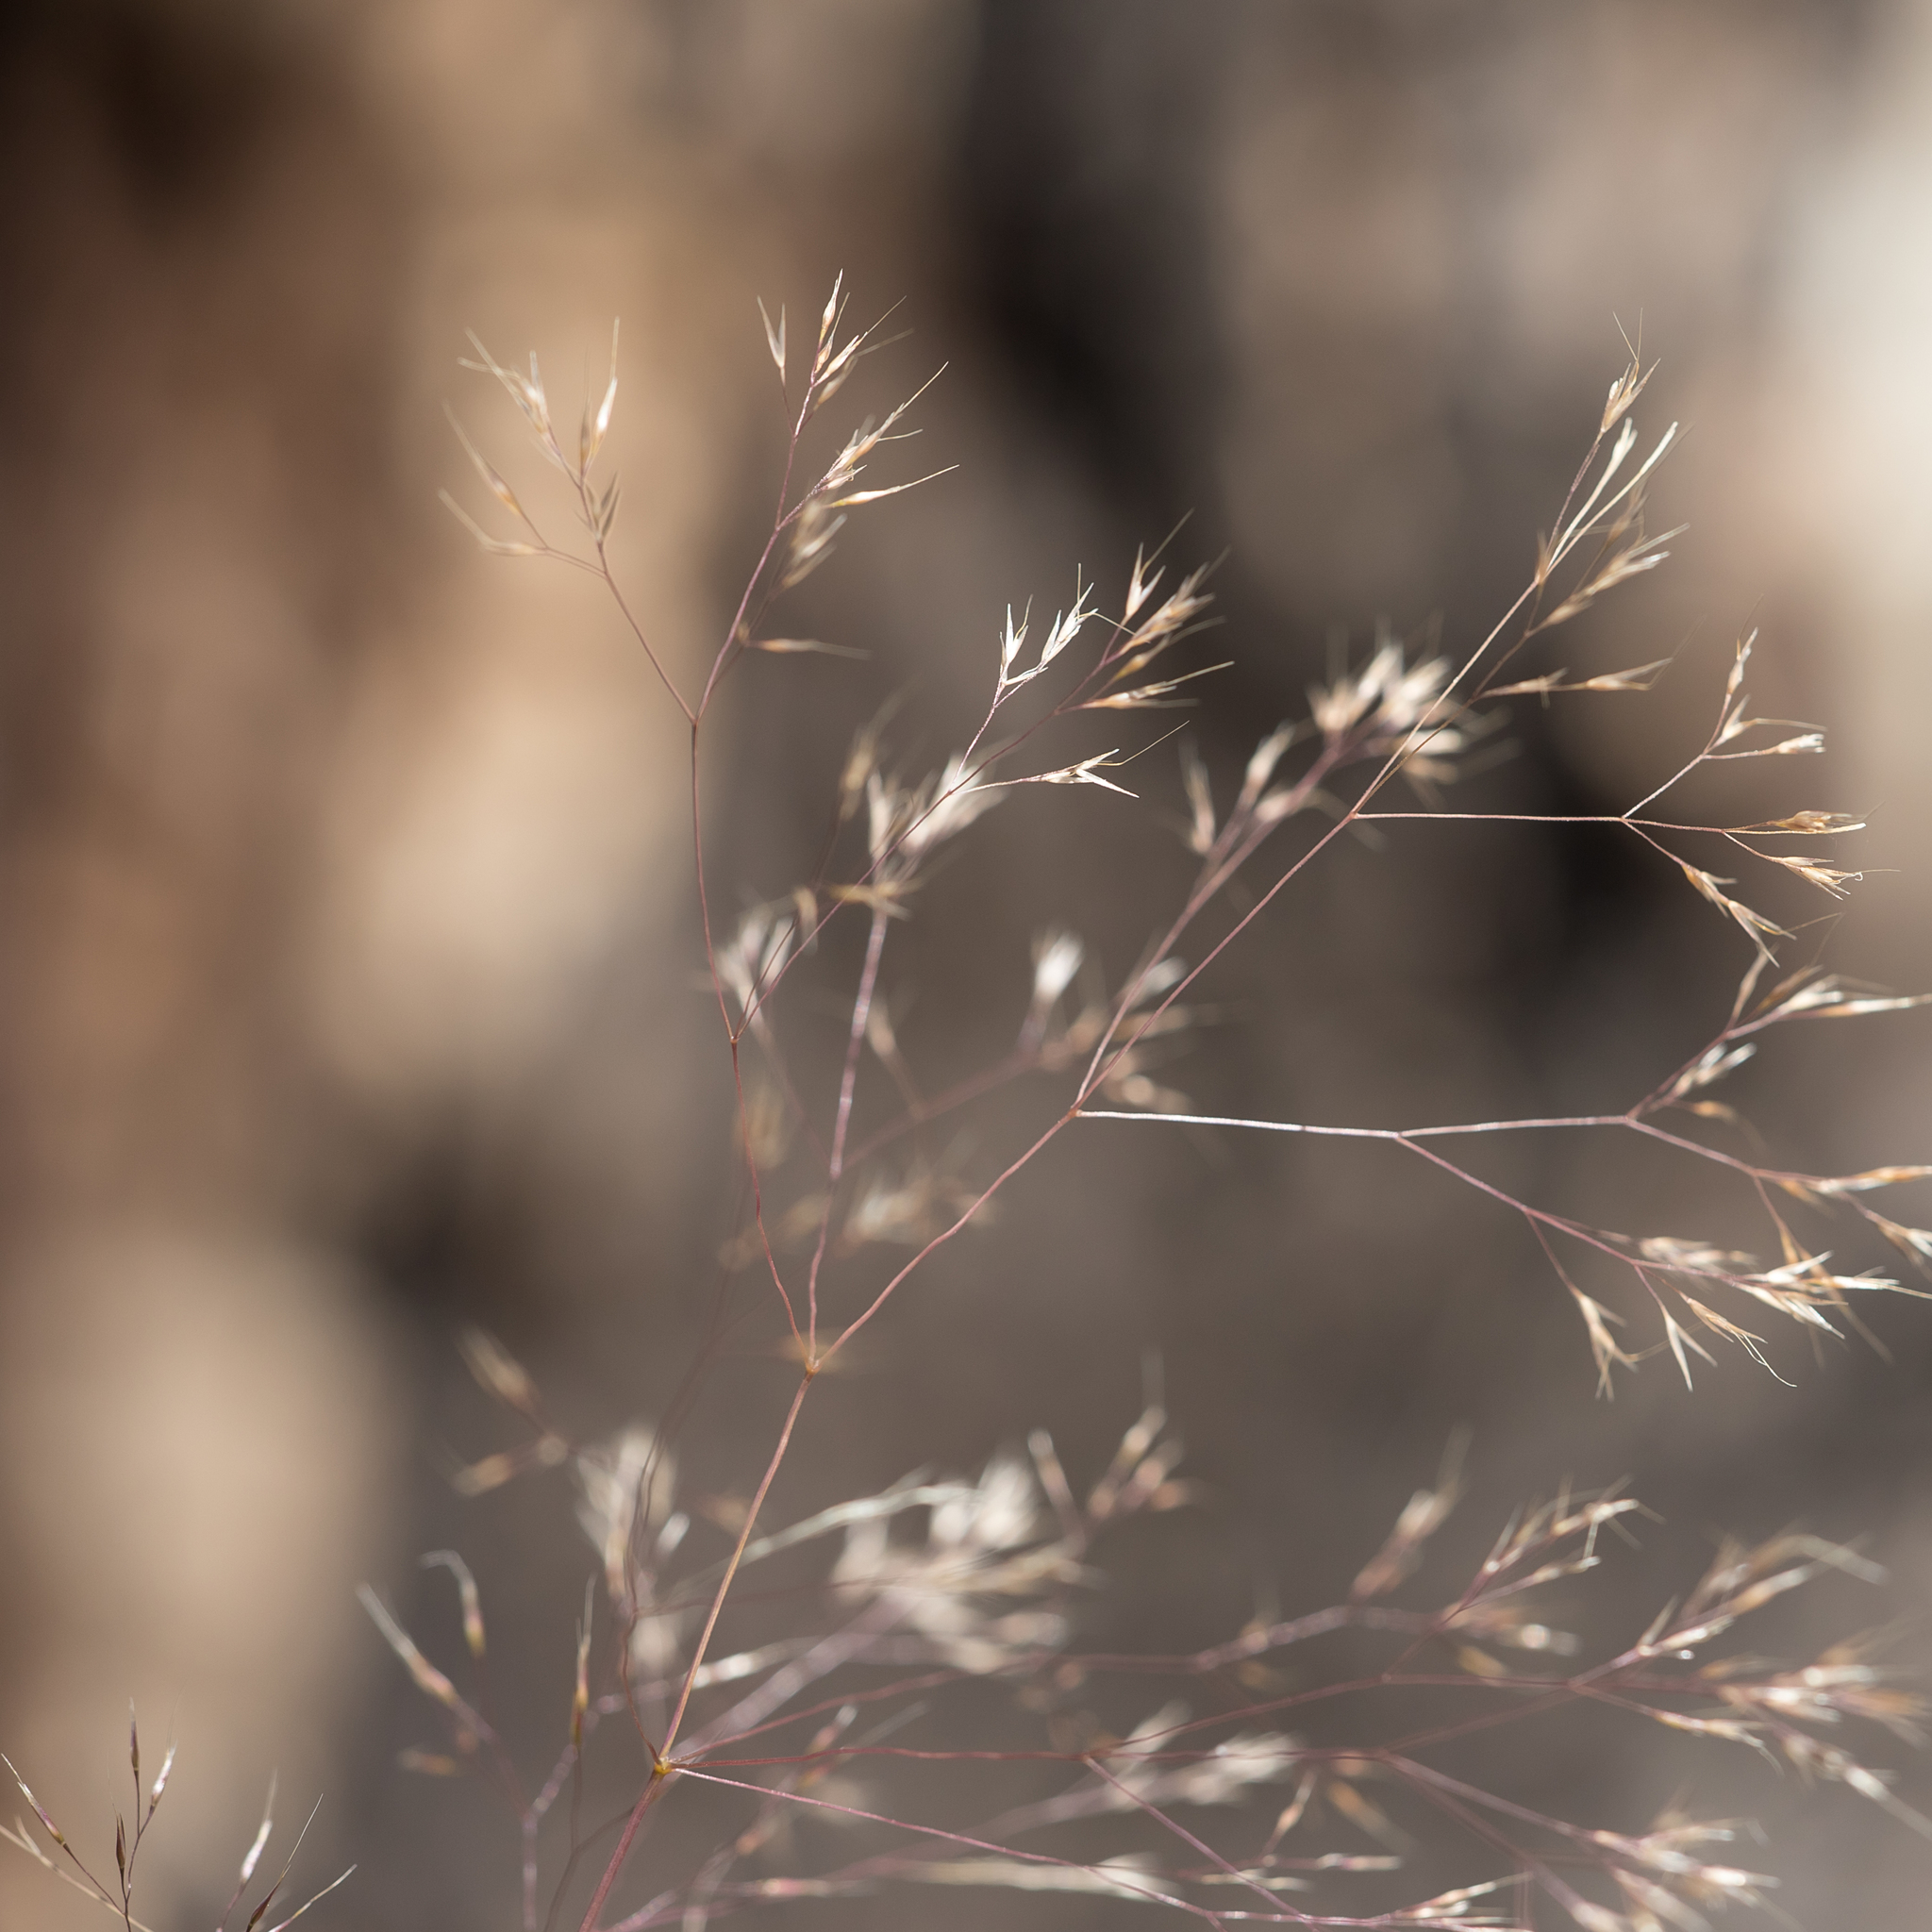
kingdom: Plantae
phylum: Tracheophyta
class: Liliopsida
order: Poales
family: Poaceae
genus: Lachnagrostis
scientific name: Lachnagrostis aemula
